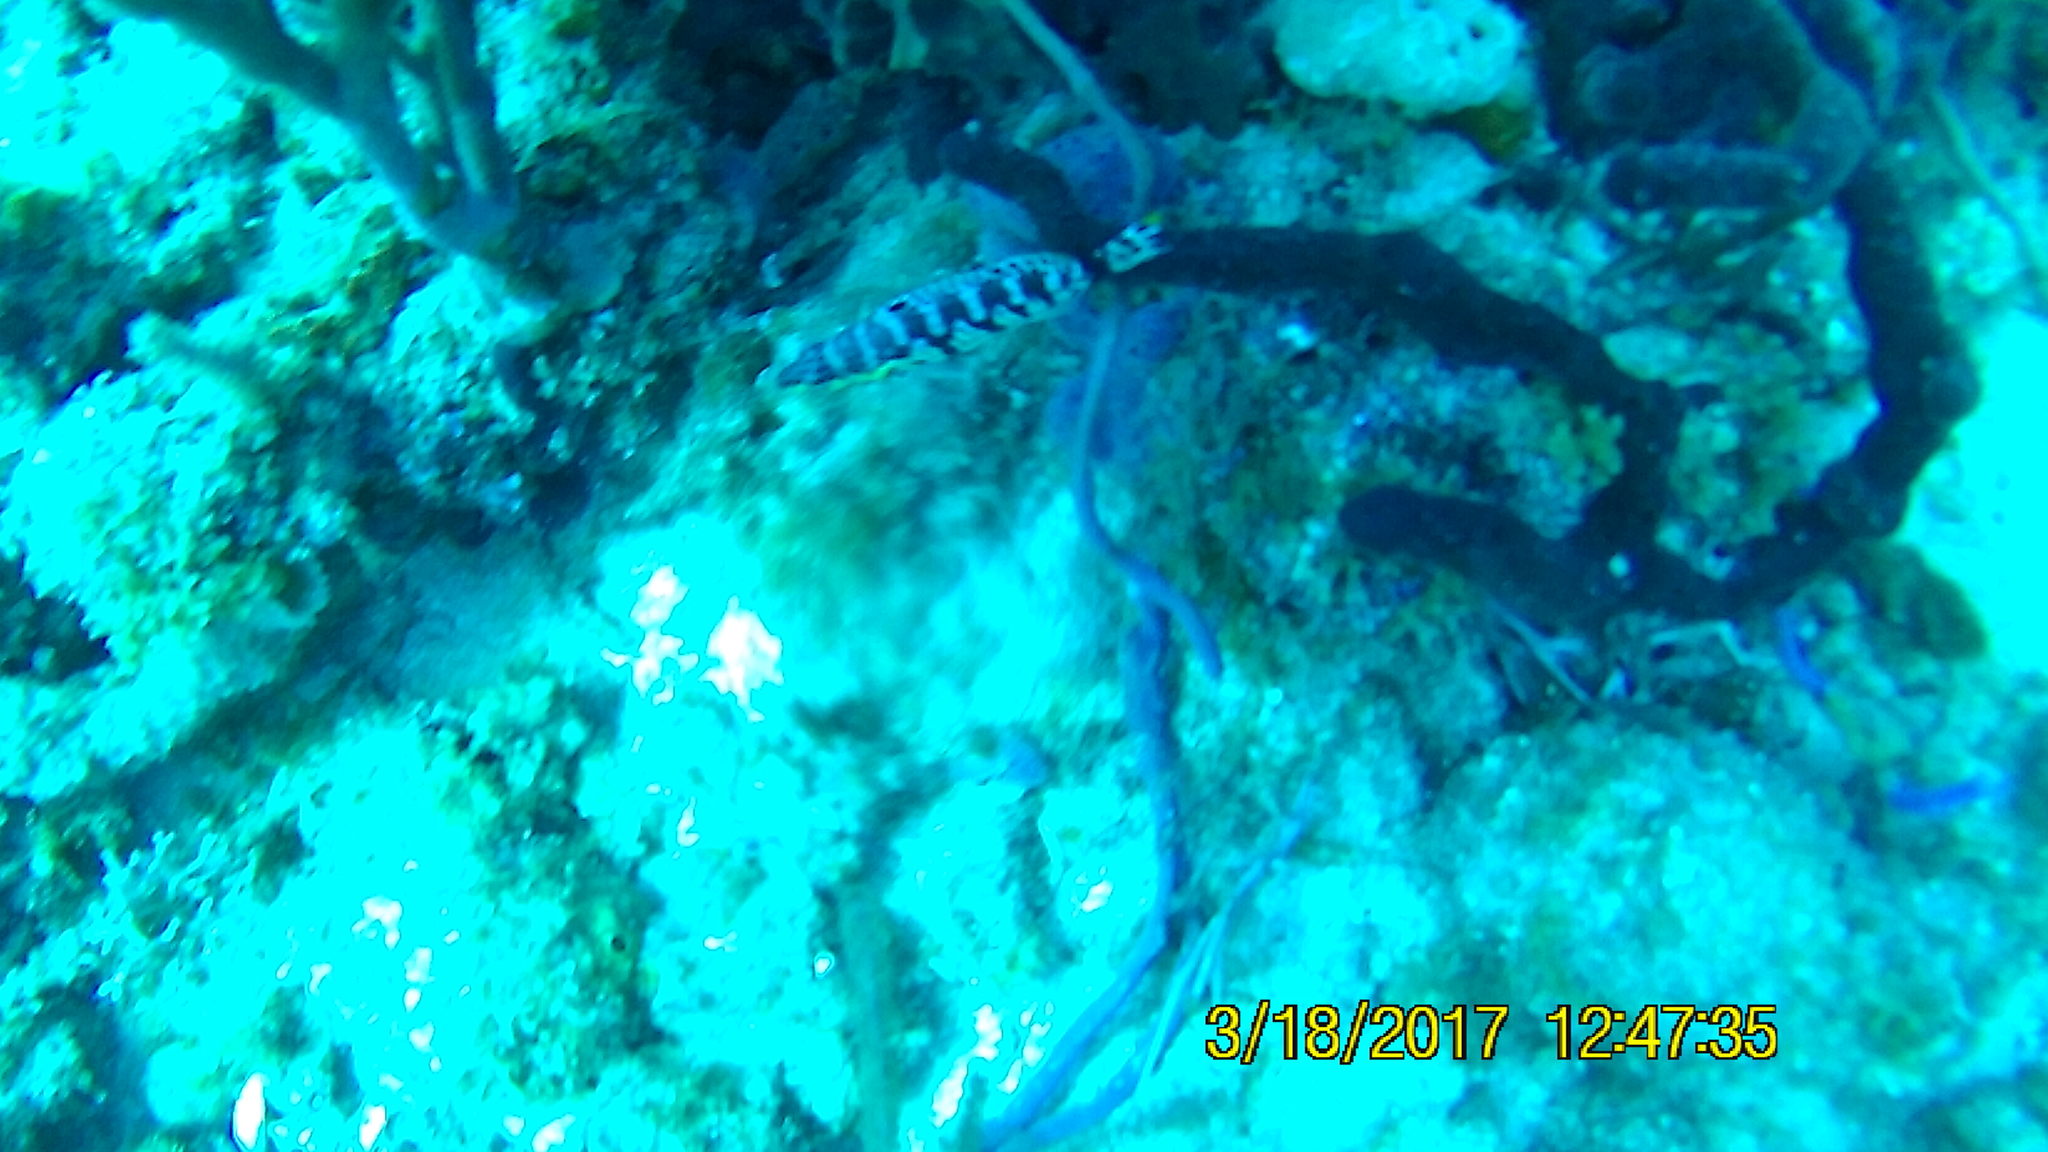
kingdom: Animalia
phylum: Chordata
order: Perciformes
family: Serranidae
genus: Serranus
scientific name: Serranus tigrinus
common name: Harlequin bass
